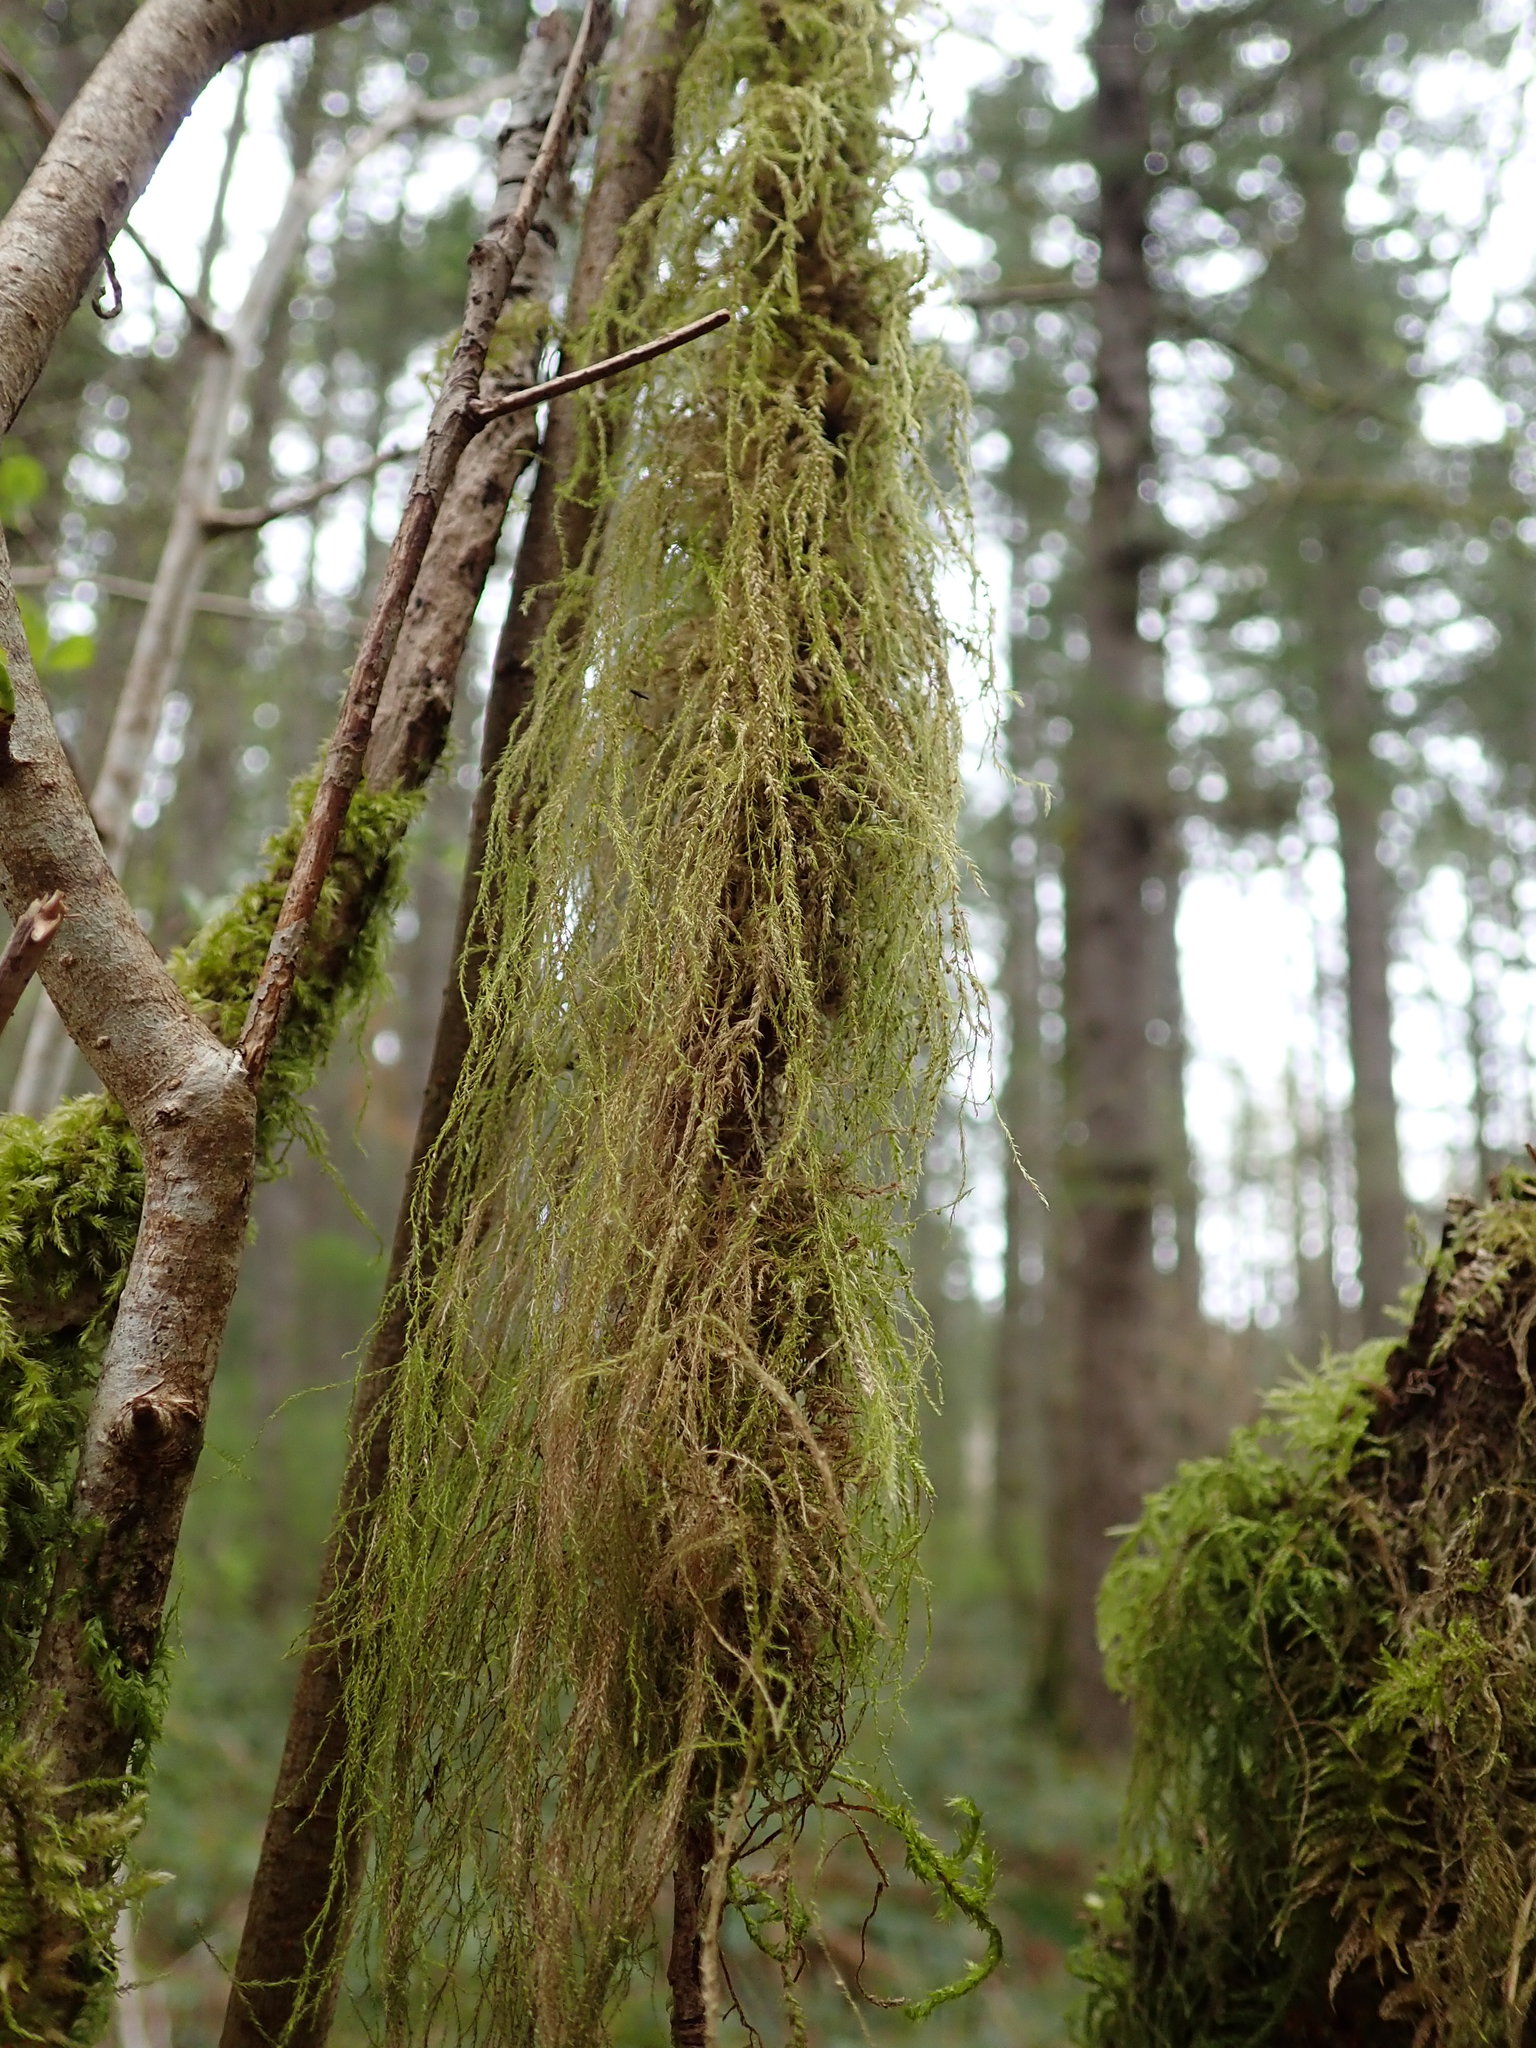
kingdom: Plantae
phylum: Bryophyta
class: Bryopsida
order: Hypnales
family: Lembophyllaceae
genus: Pseudisothecium
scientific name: Pseudisothecium stoloniferum
